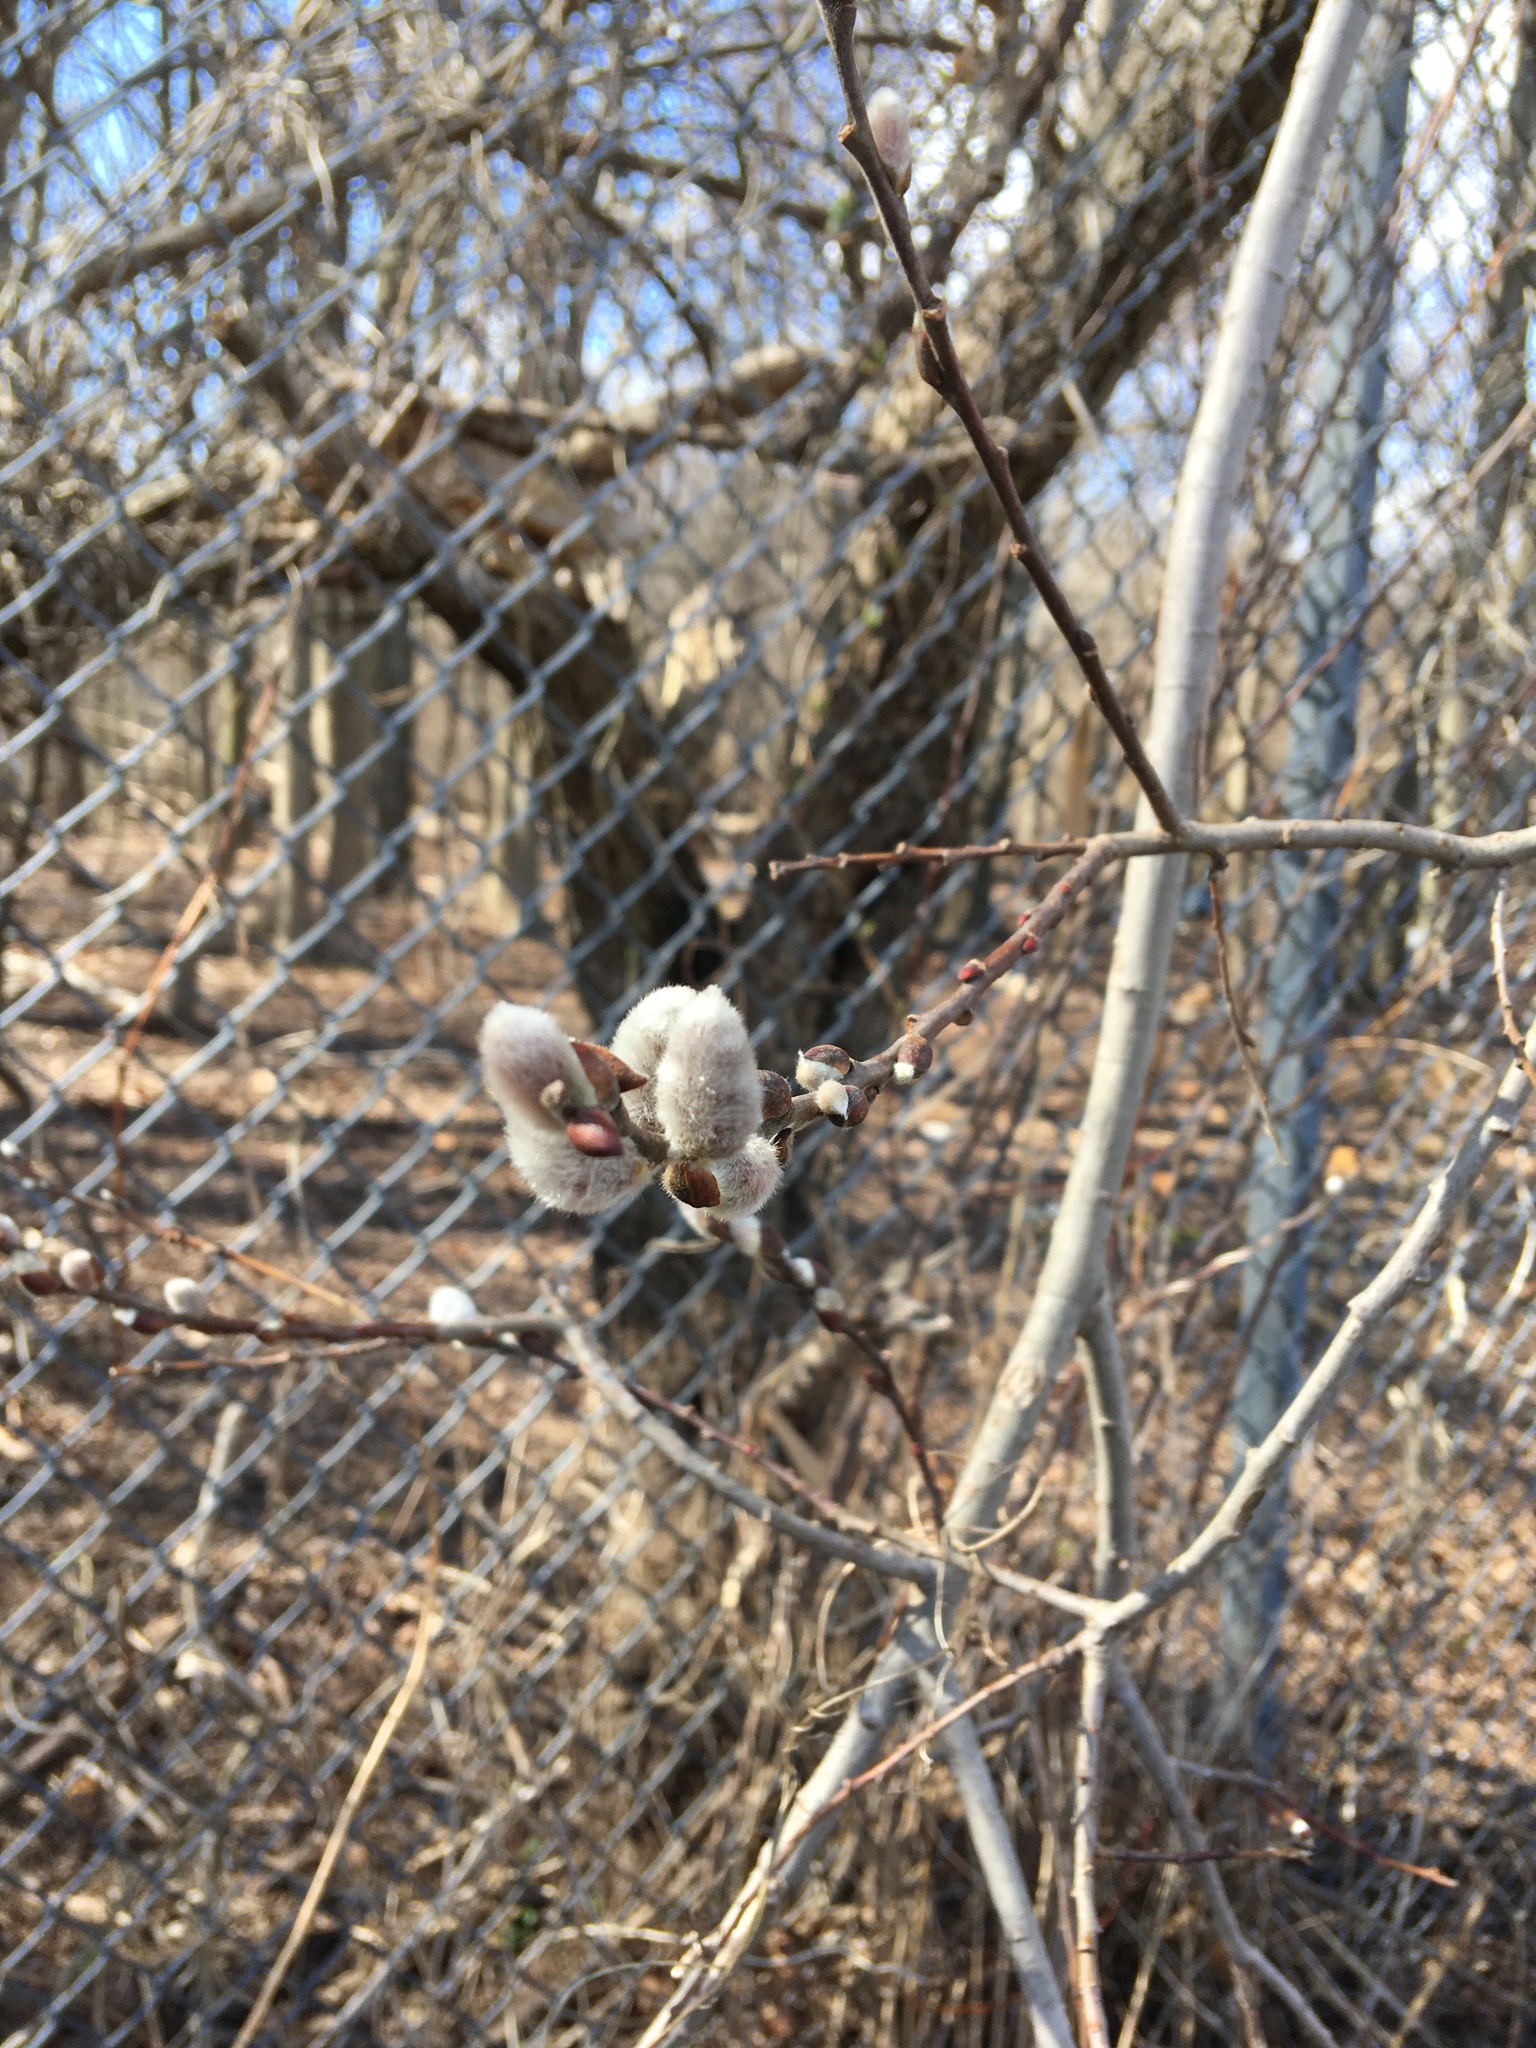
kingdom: Plantae
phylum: Tracheophyta
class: Magnoliopsida
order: Malpighiales
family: Salicaceae
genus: Salix
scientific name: Salix discolor
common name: Glaucous willow
